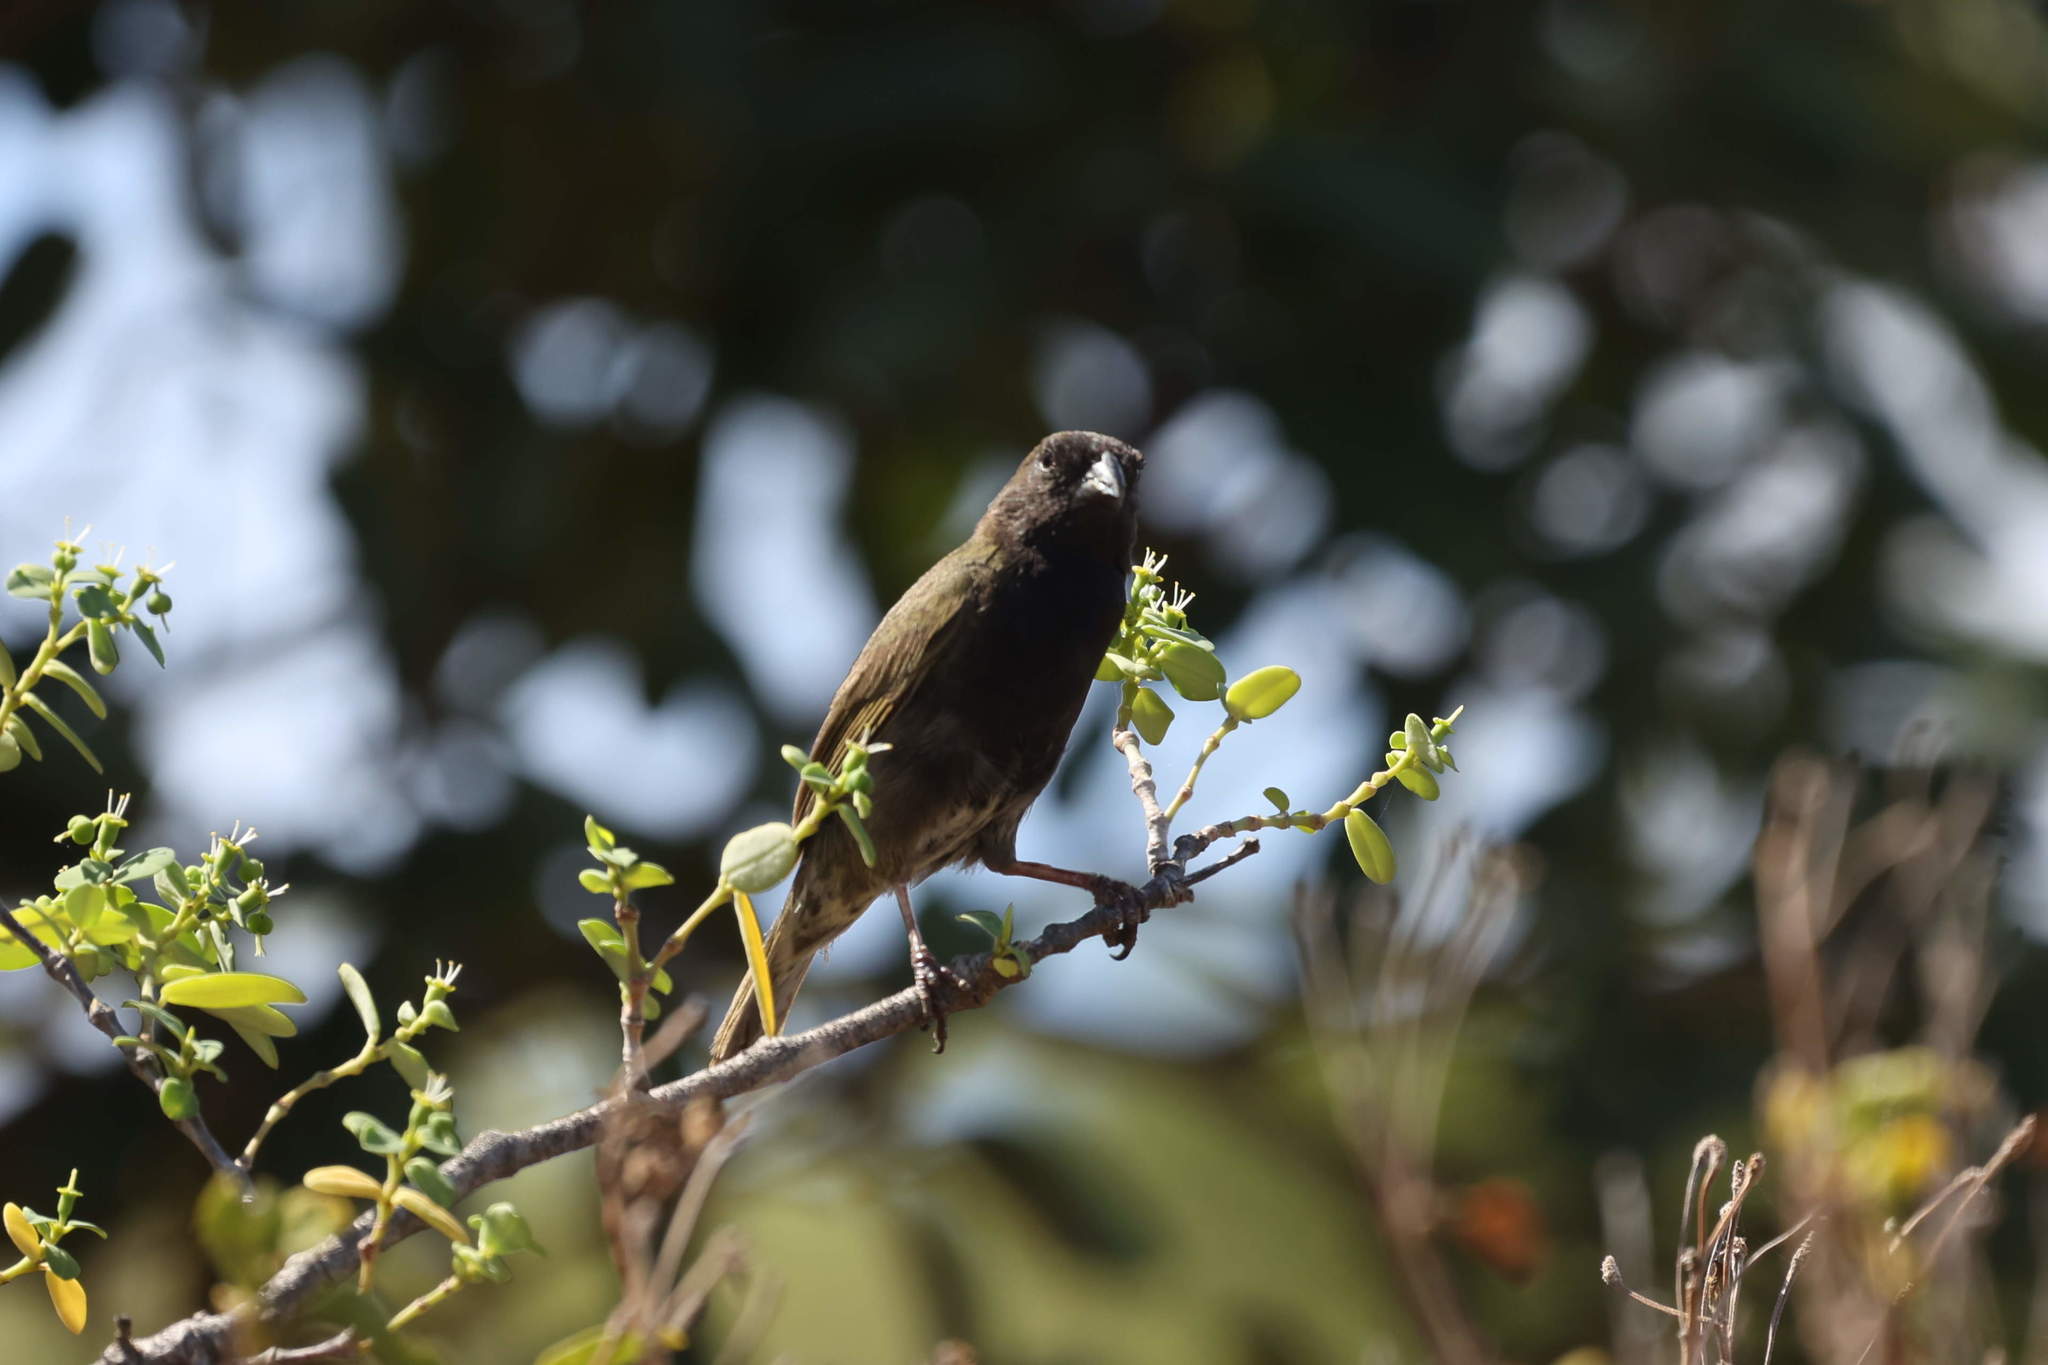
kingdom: Animalia
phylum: Chordata
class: Aves
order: Passeriformes
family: Thraupidae
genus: Melanospiza
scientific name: Melanospiza bicolor
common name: Black-faced grassquit
